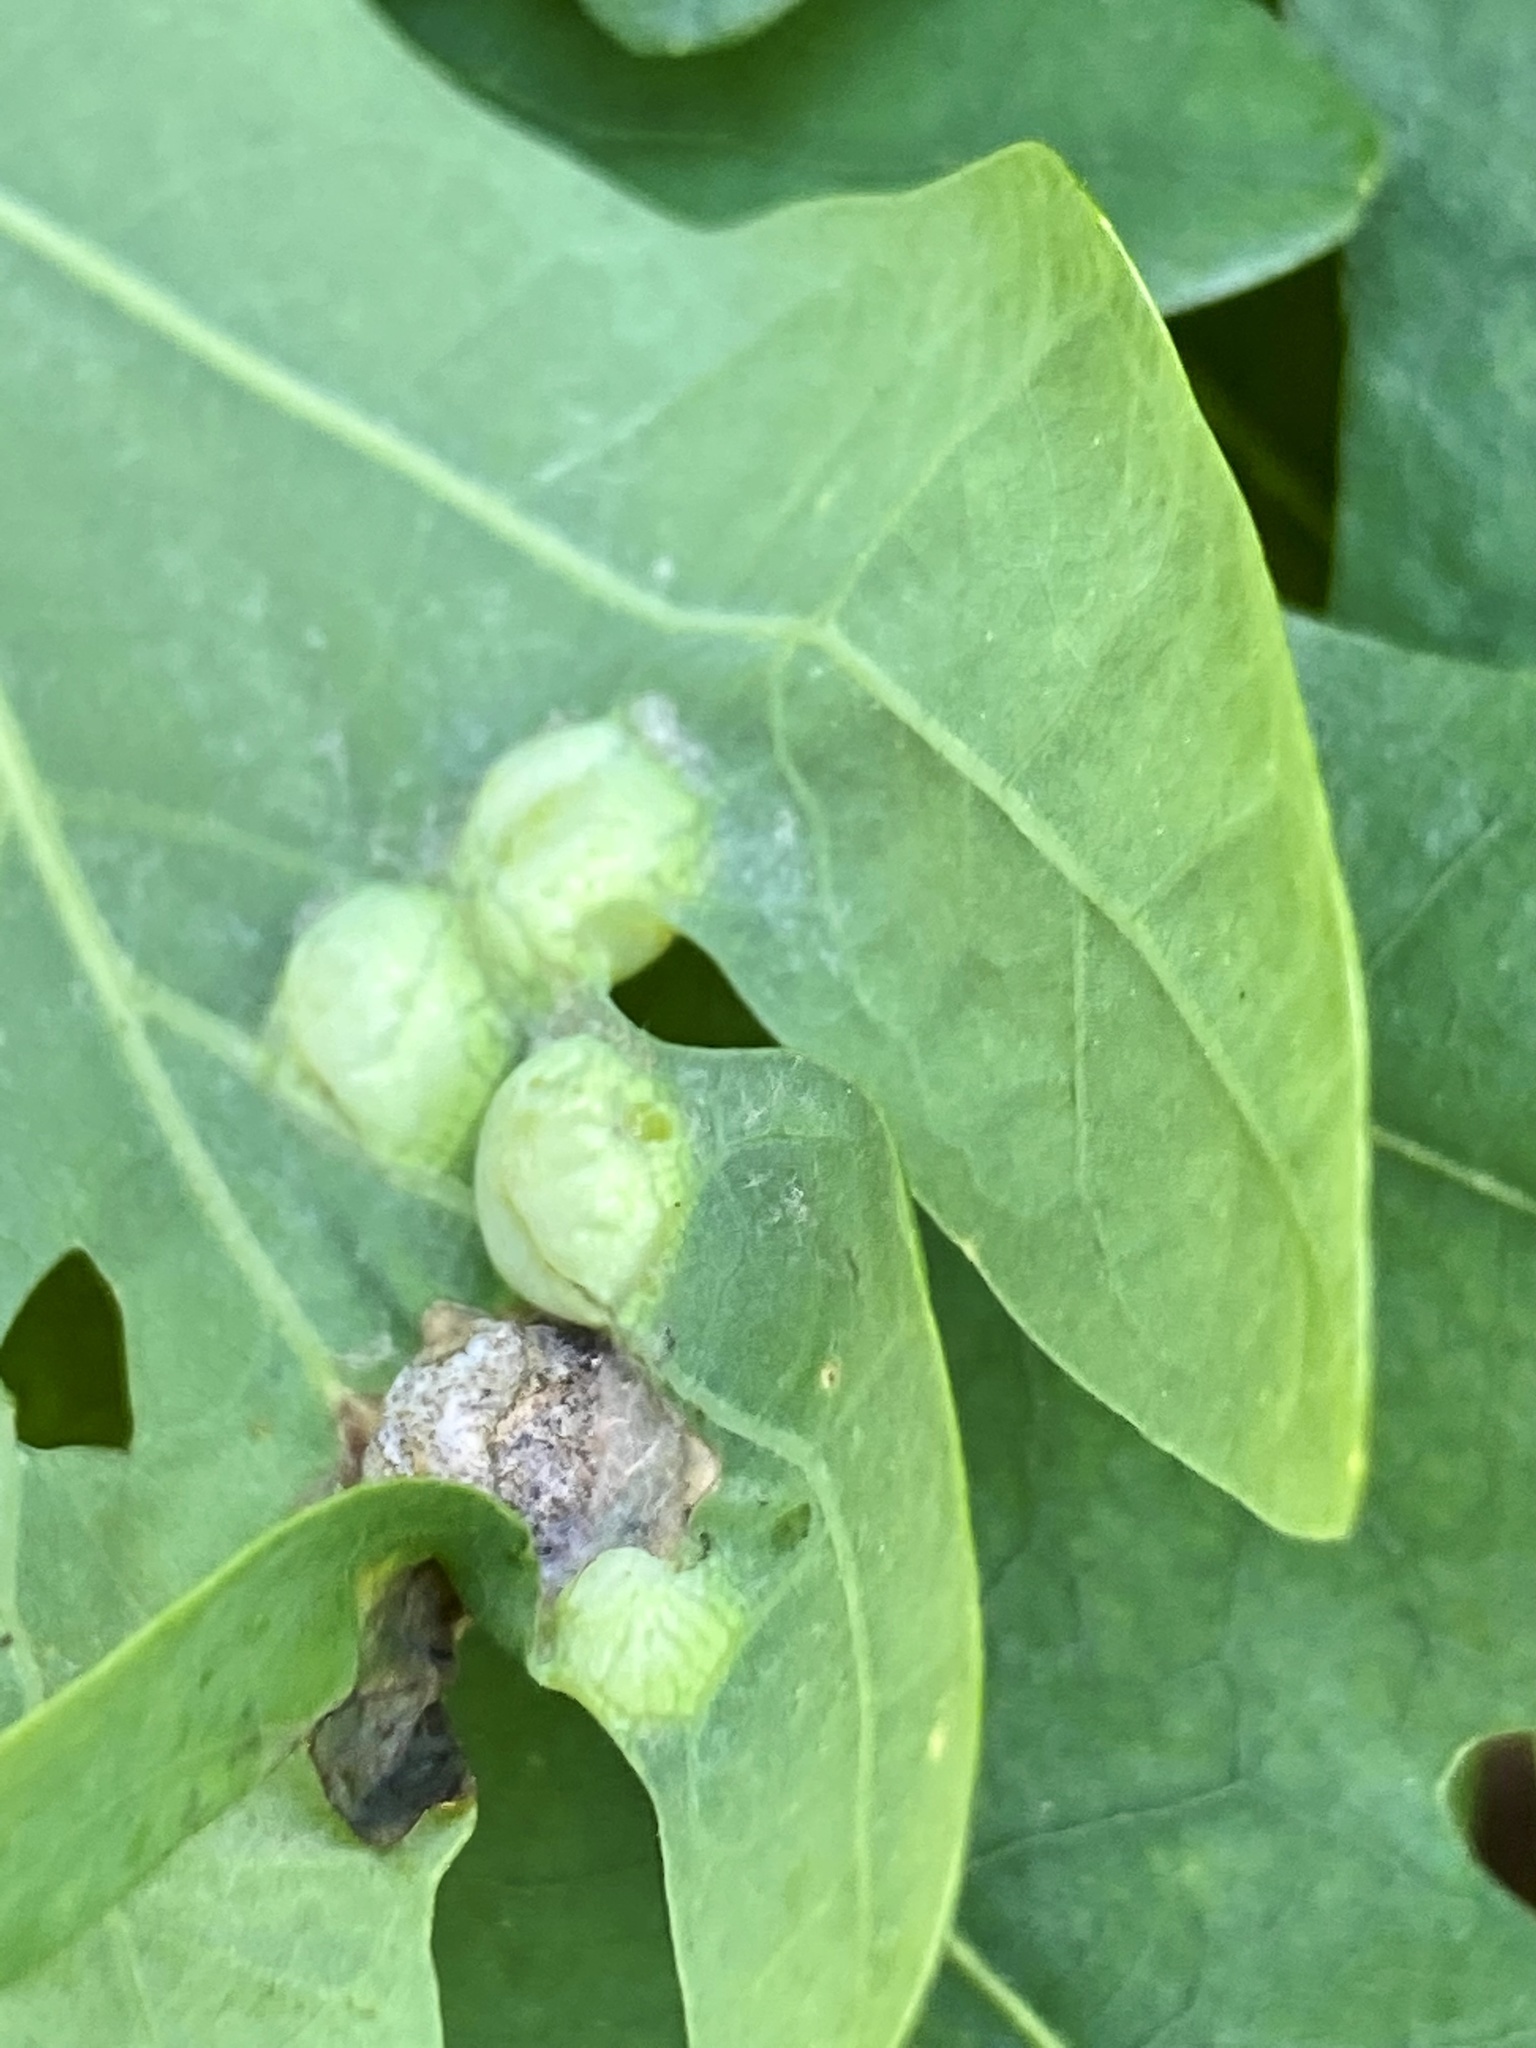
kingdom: Animalia
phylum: Arthropoda
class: Insecta
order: Hymenoptera
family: Cynipidae
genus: Callirhytis
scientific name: Callirhytis
